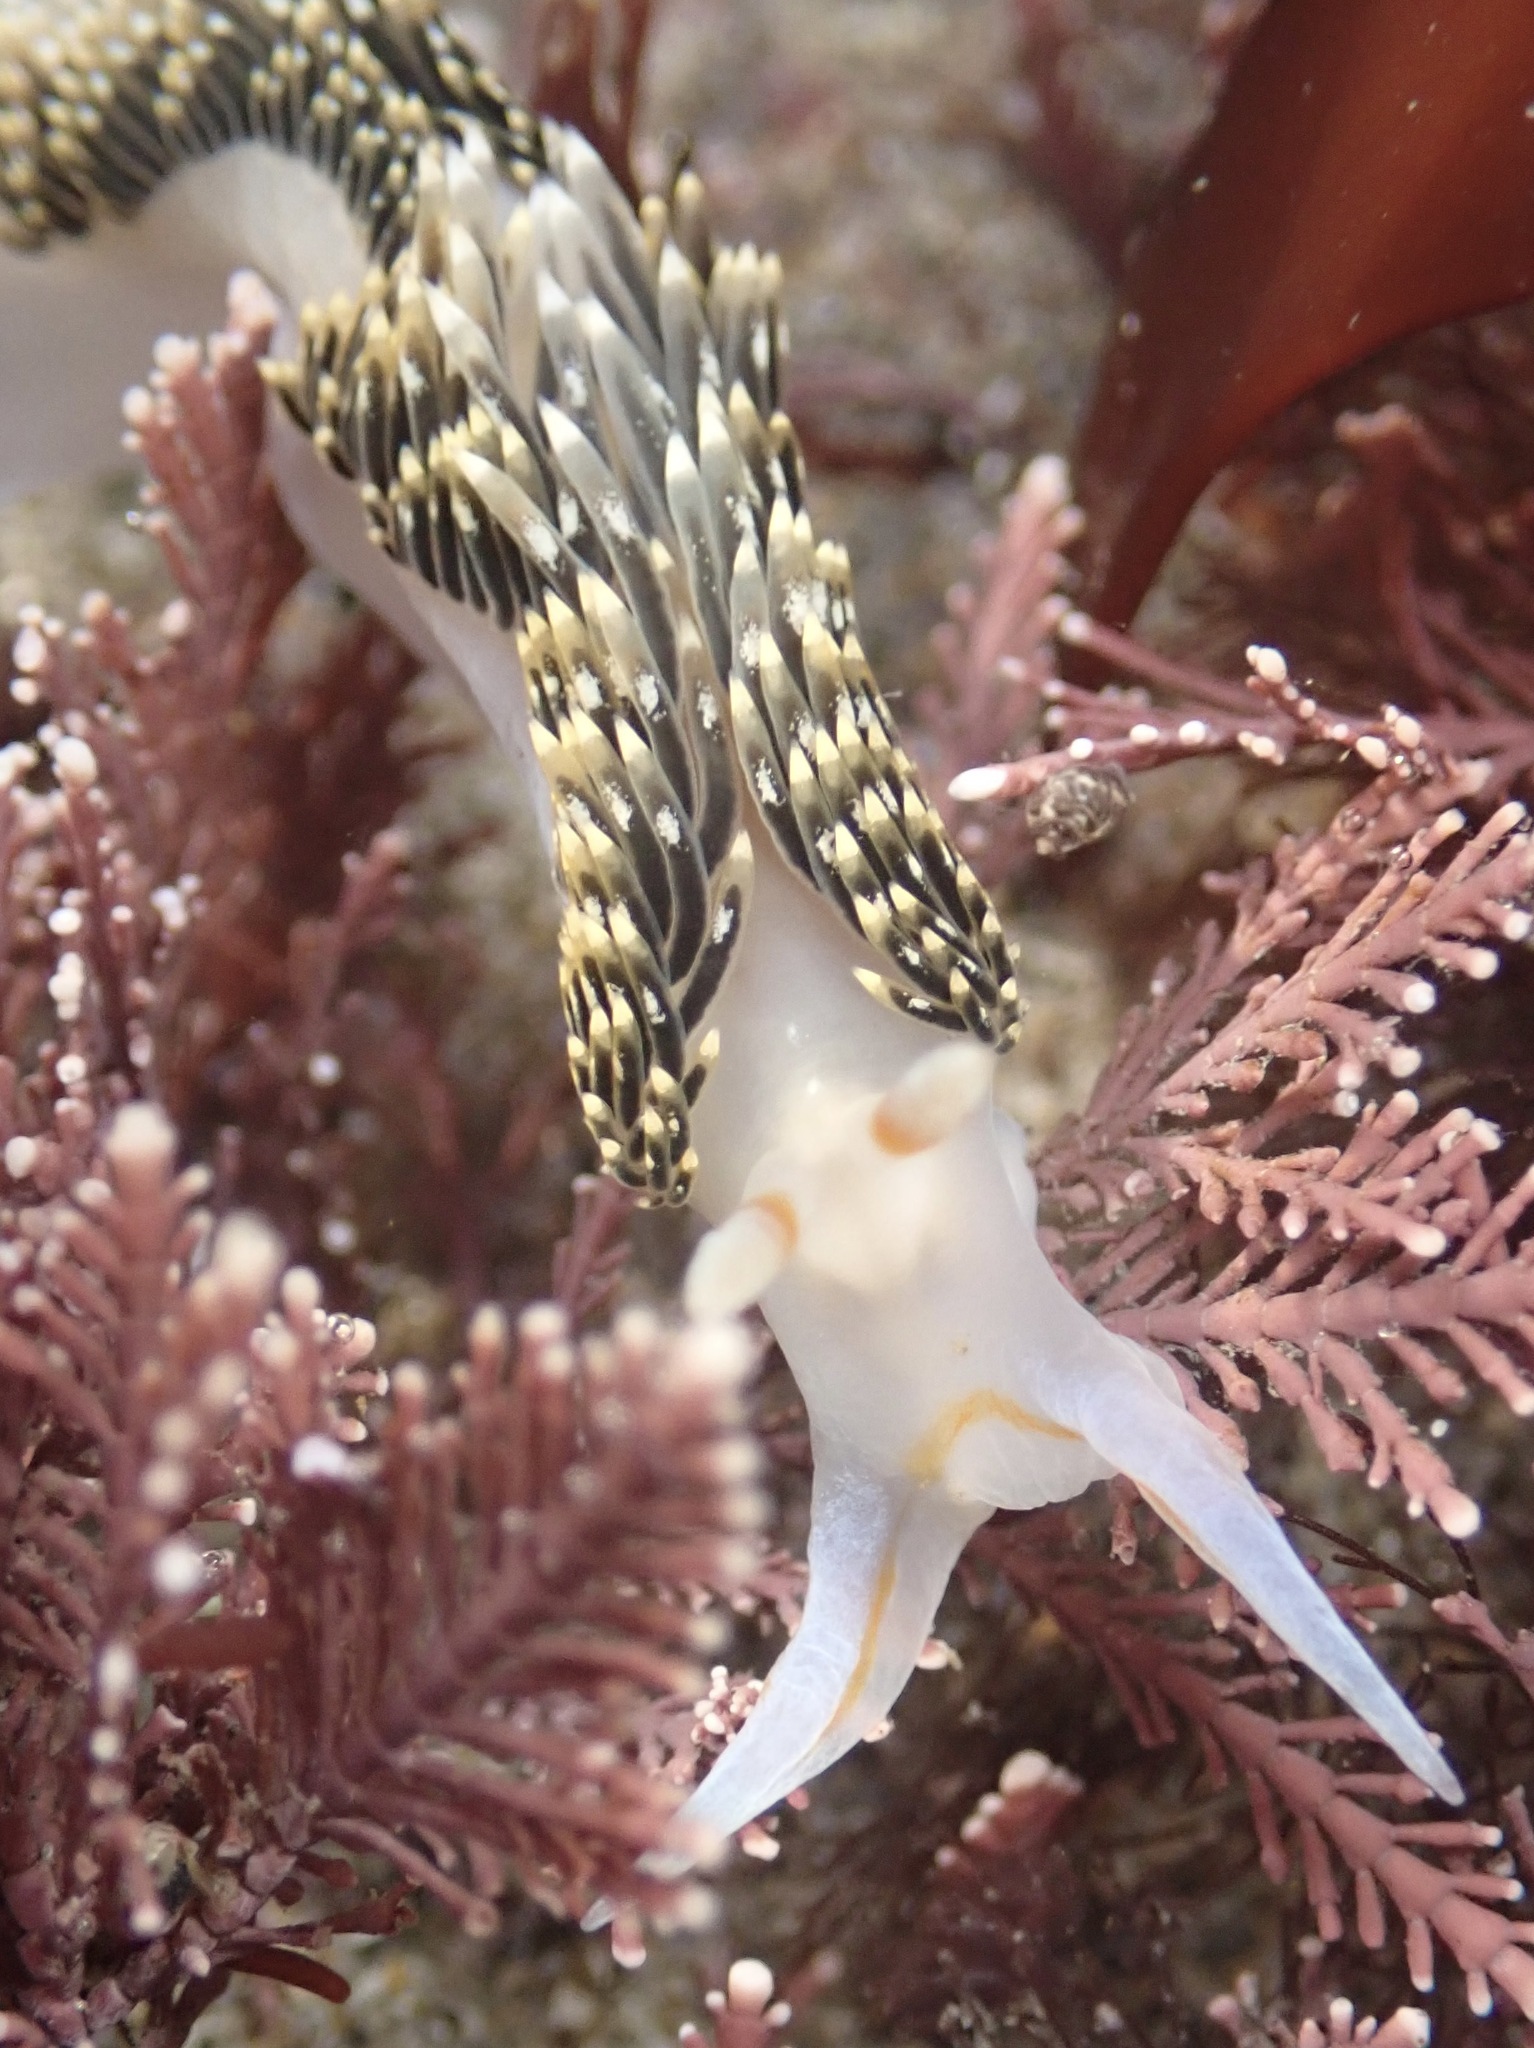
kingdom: Animalia
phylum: Mollusca
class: Gastropoda
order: Nudibranchia
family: Facelinidae
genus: Phidiana
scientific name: Phidiana hiltoni
